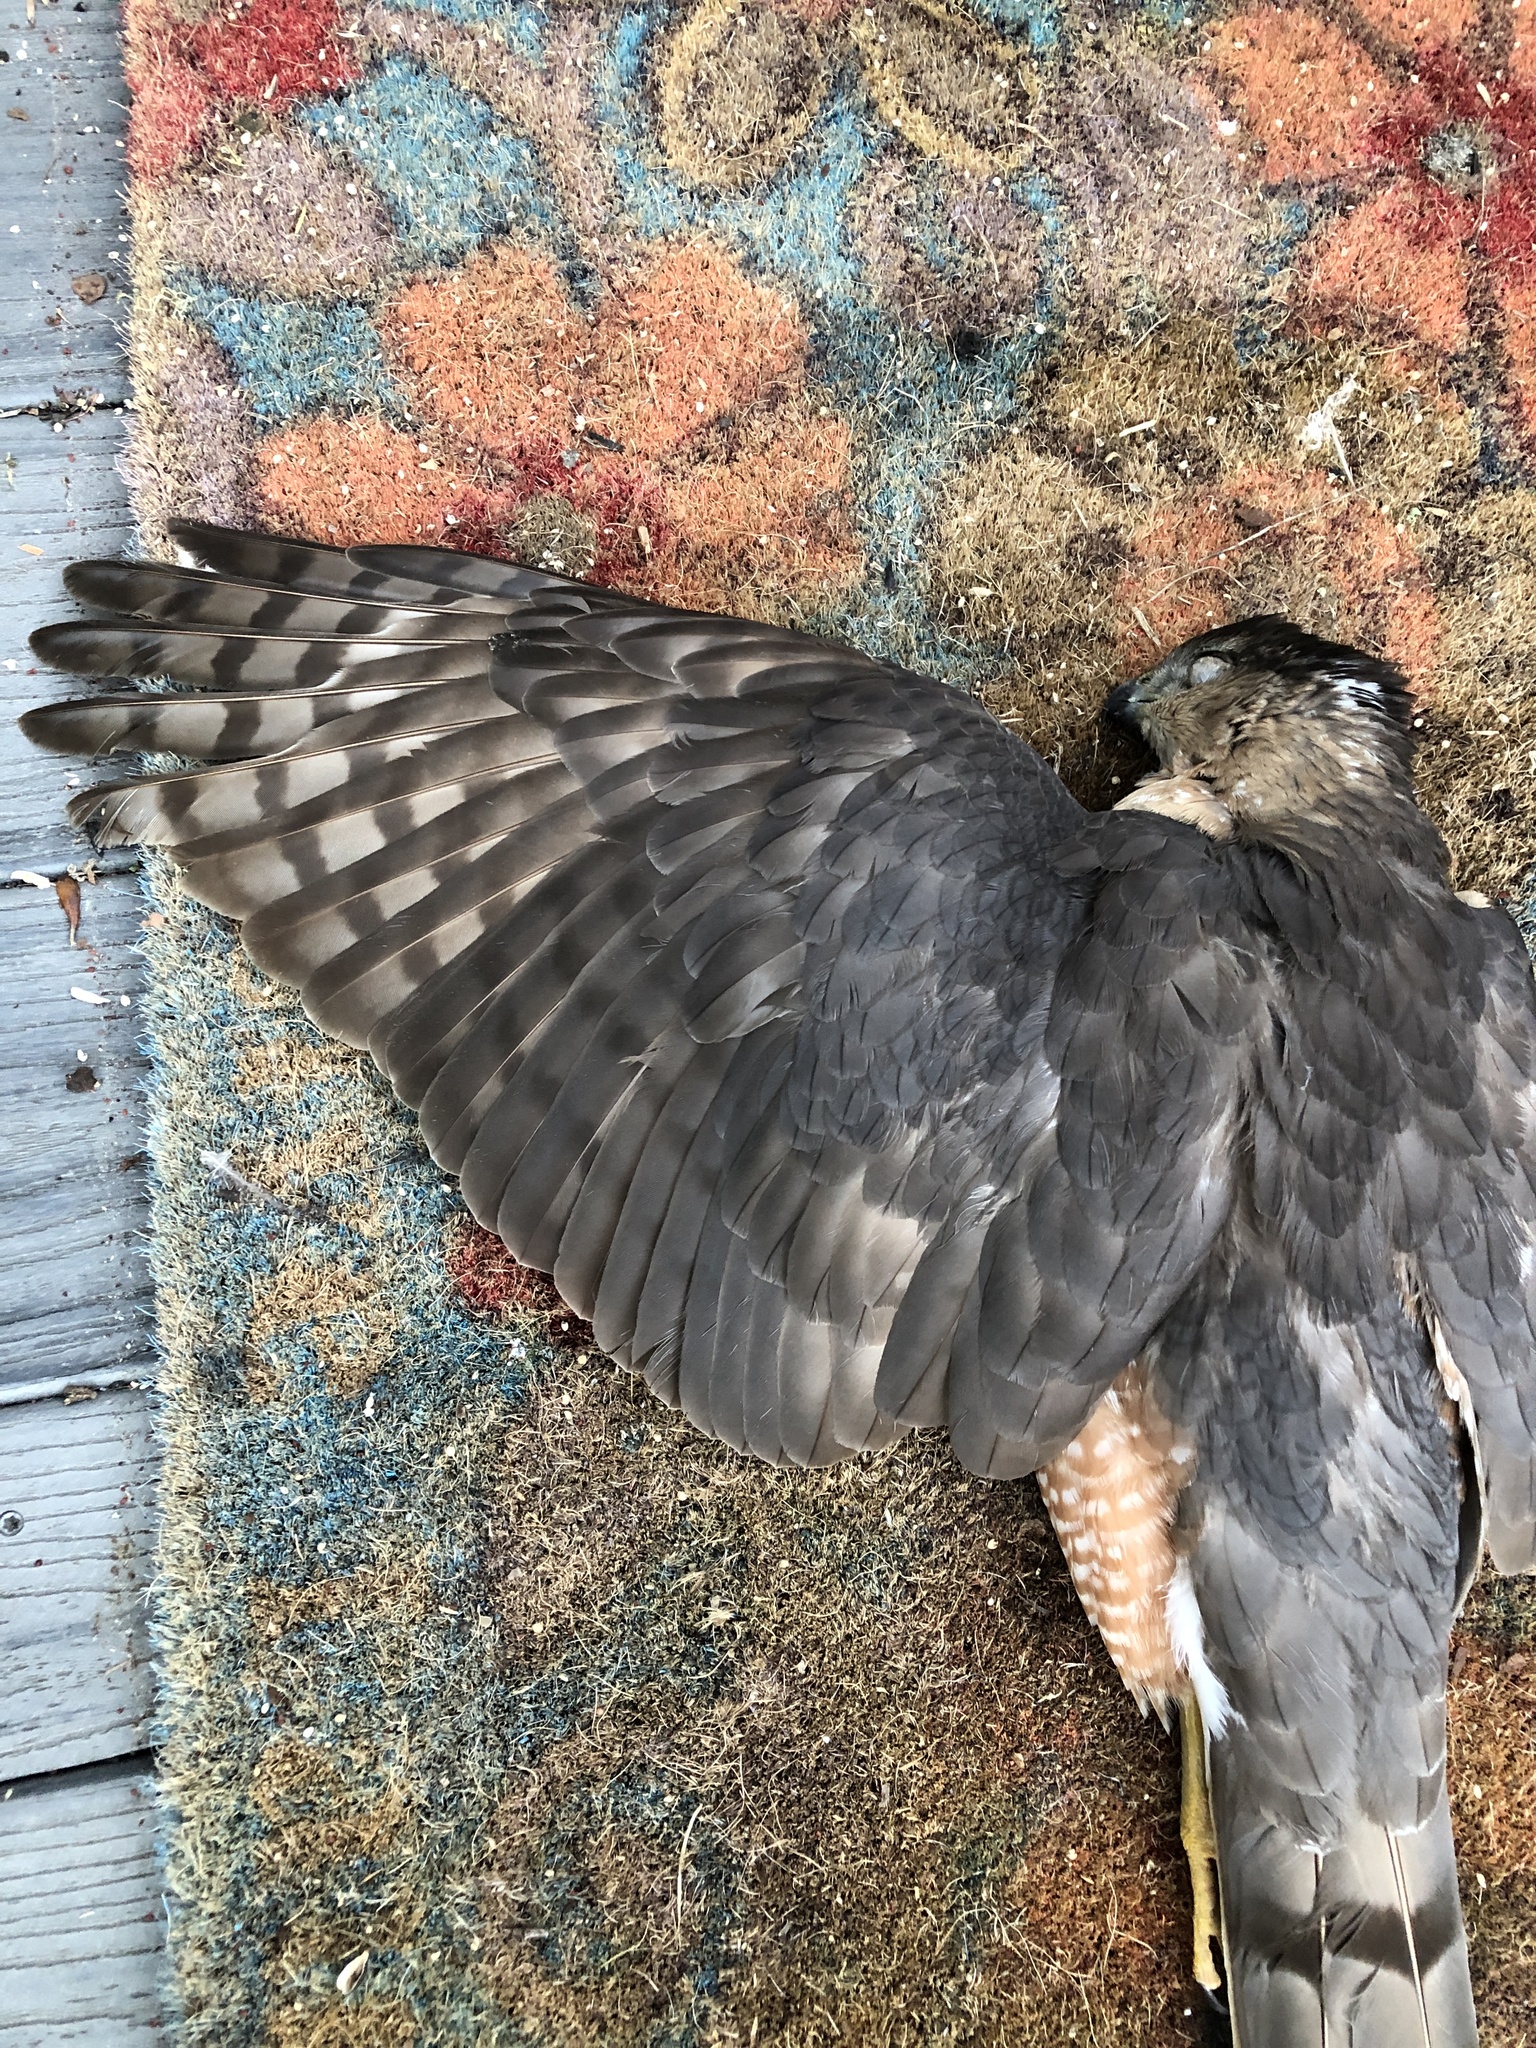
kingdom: Animalia
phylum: Chordata
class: Aves
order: Accipitriformes
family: Accipitridae
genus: Accipiter
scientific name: Accipiter cooperii
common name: Cooper's hawk
